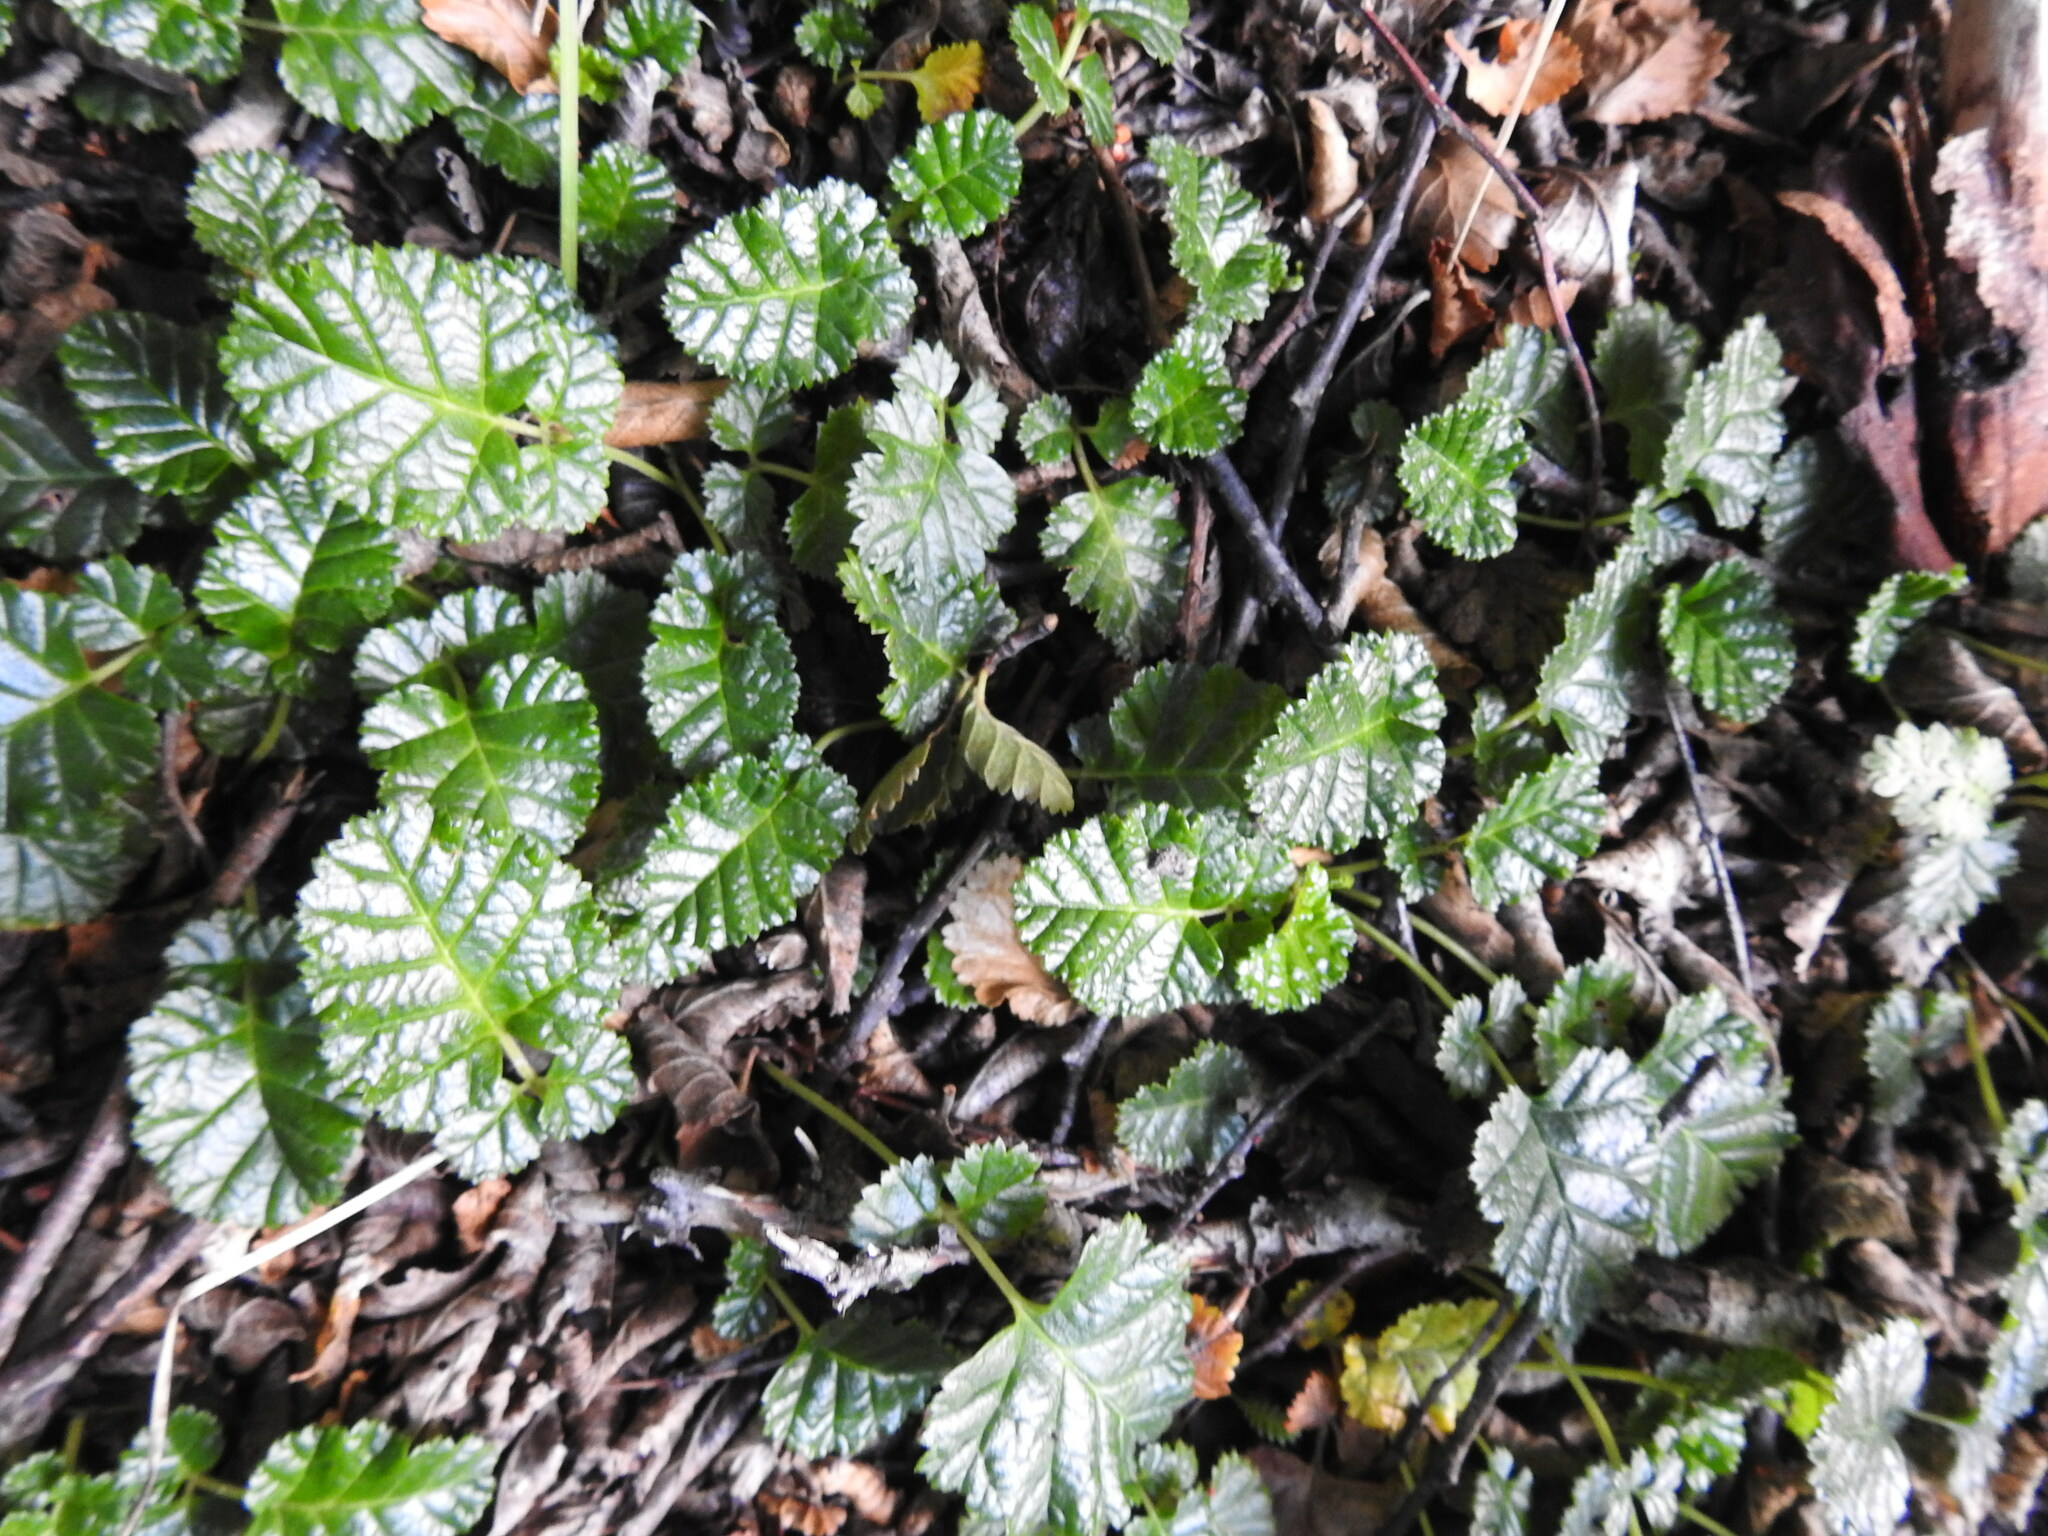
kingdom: Plantae
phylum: Tracheophyta
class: Magnoliopsida
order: Rosales
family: Rosaceae
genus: Rubus
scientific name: Rubus geoides
